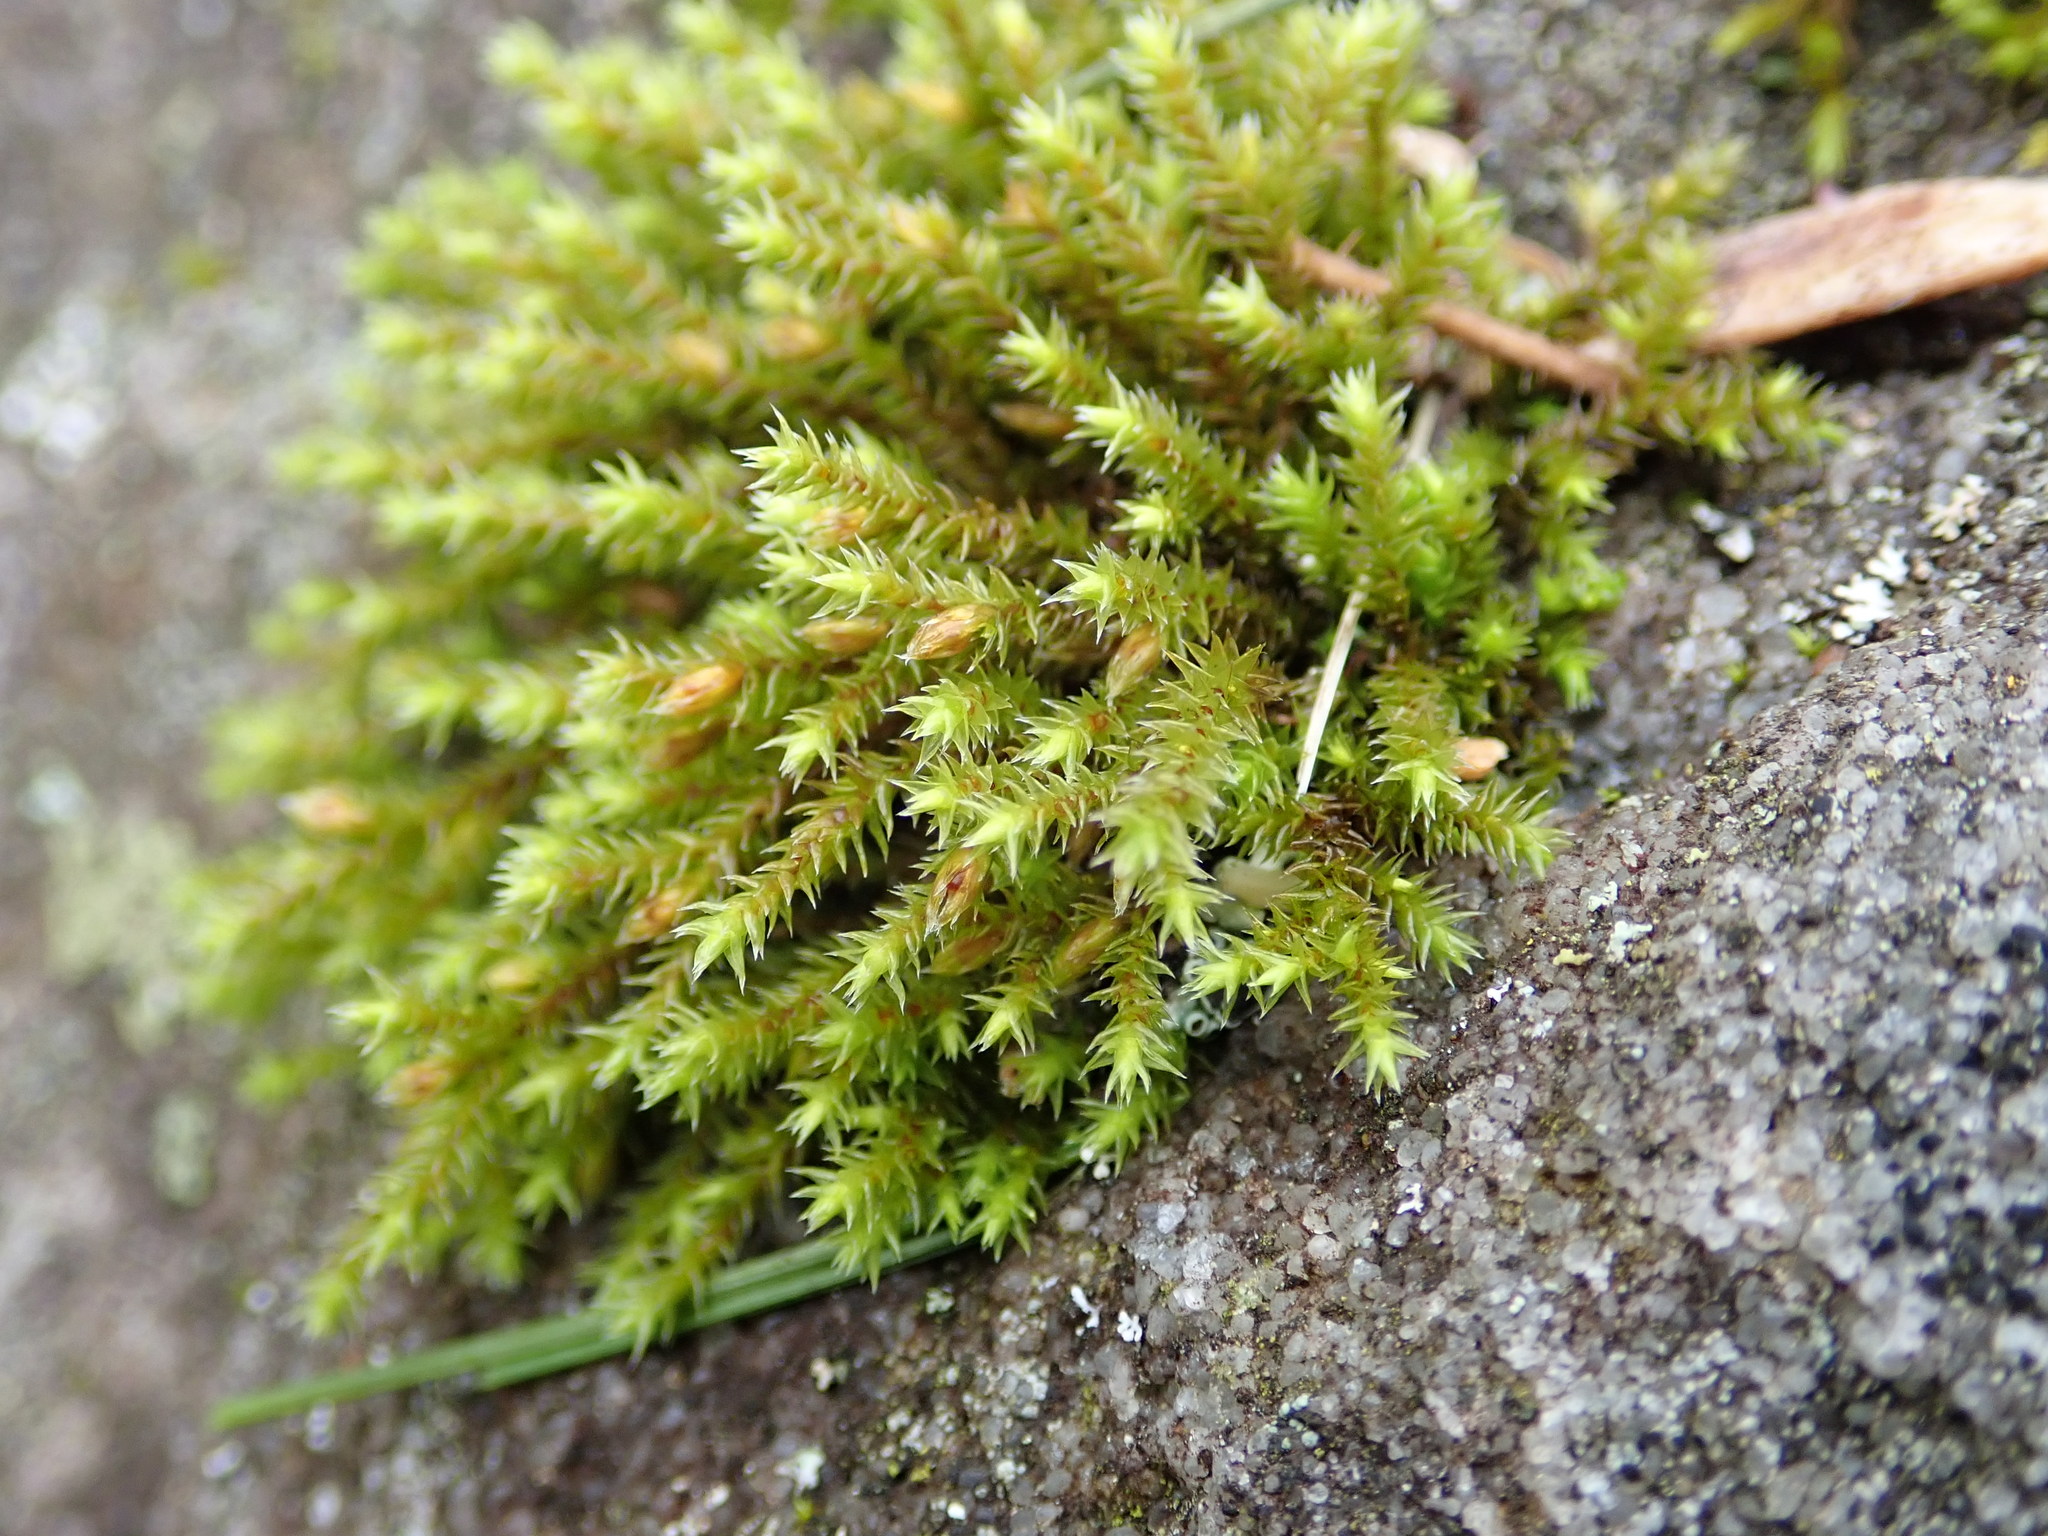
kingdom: Plantae
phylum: Bryophyta
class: Bryopsida
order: Hedwigiales
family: Hedwigiaceae
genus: Hedwigia
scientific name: Hedwigia ciliata
